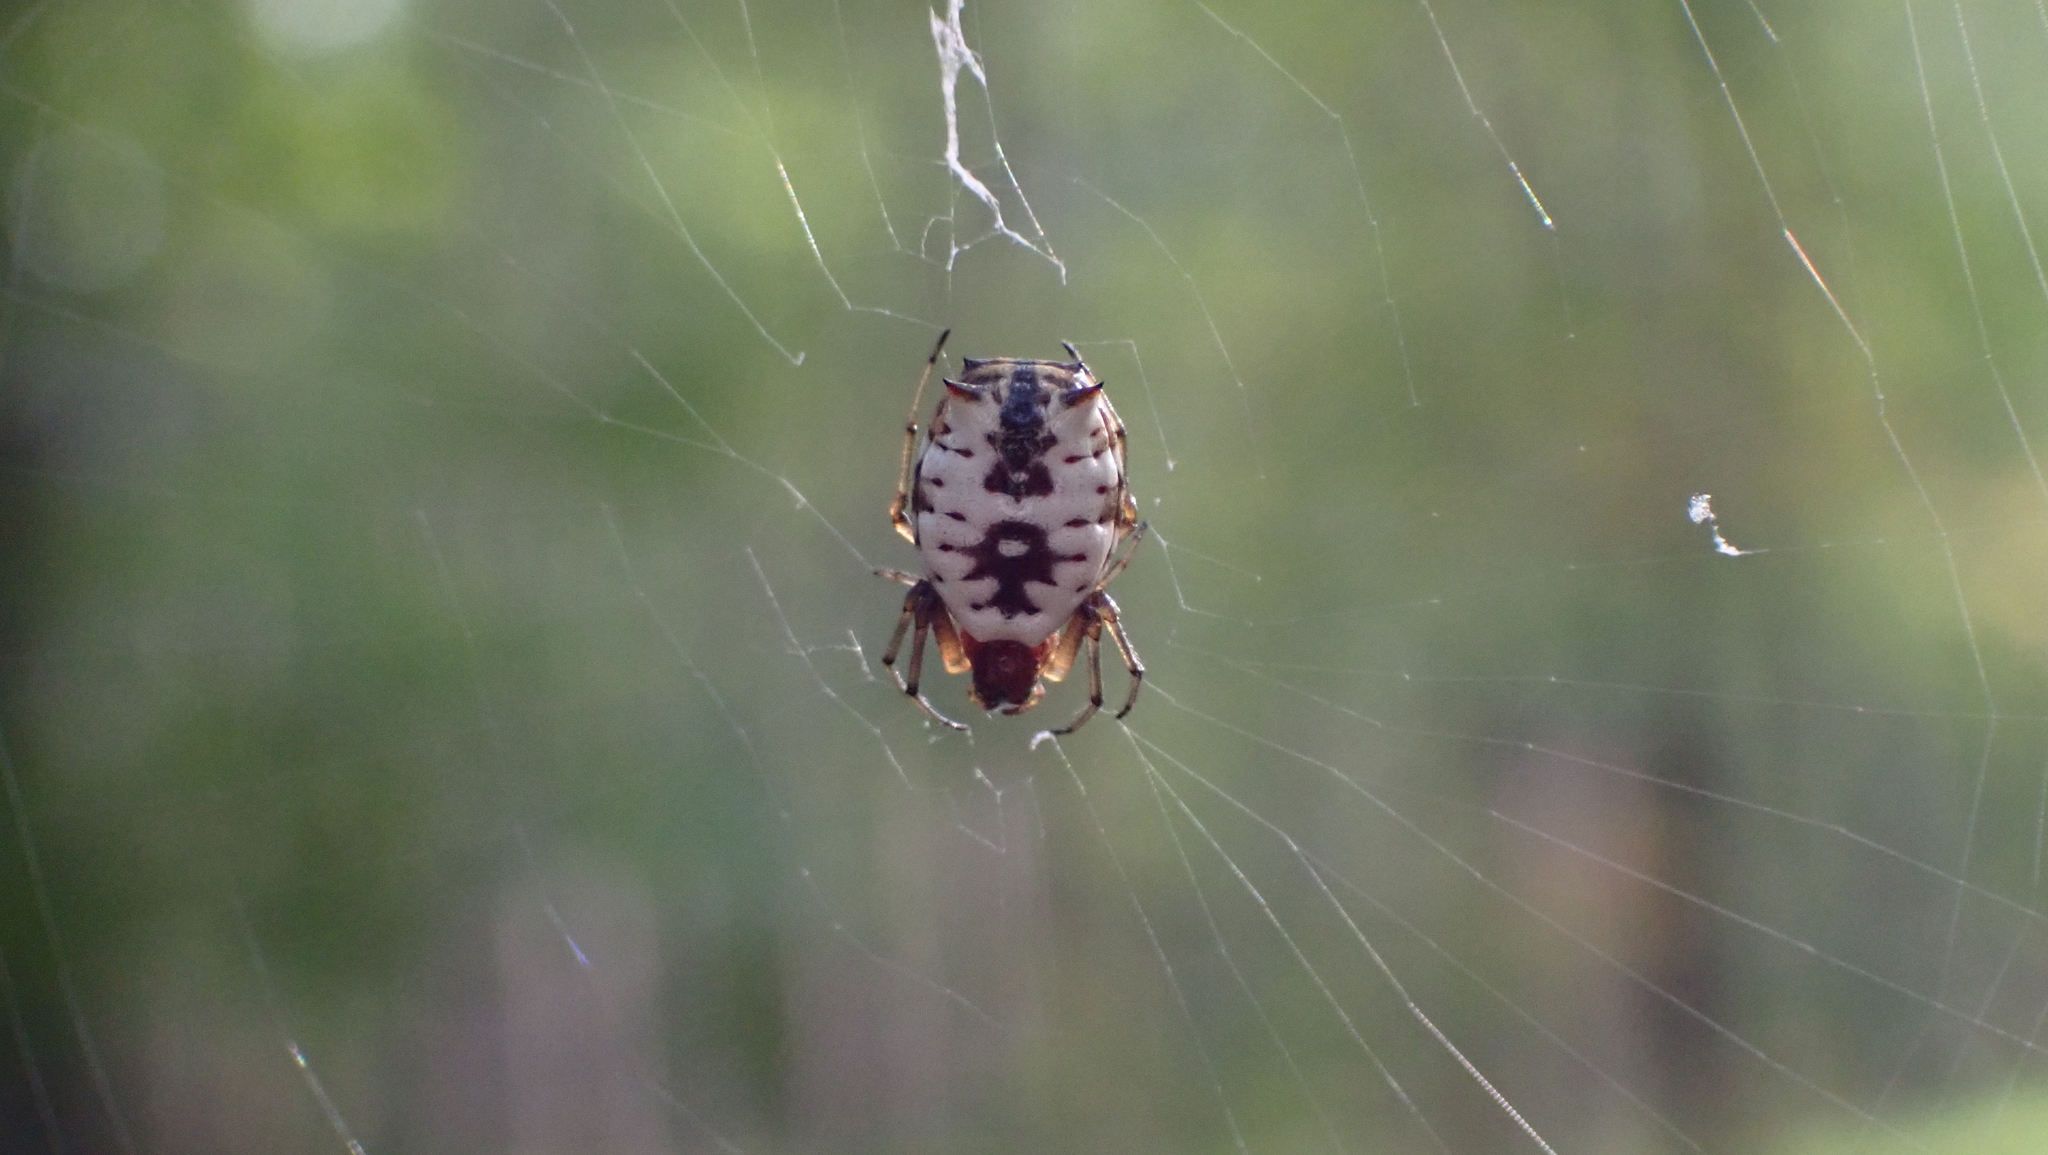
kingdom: Animalia
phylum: Arthropoda
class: Arachnida
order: Araneae
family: Araneidae
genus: Micrathena
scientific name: Micrathena mitrata
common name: Orb weavers
